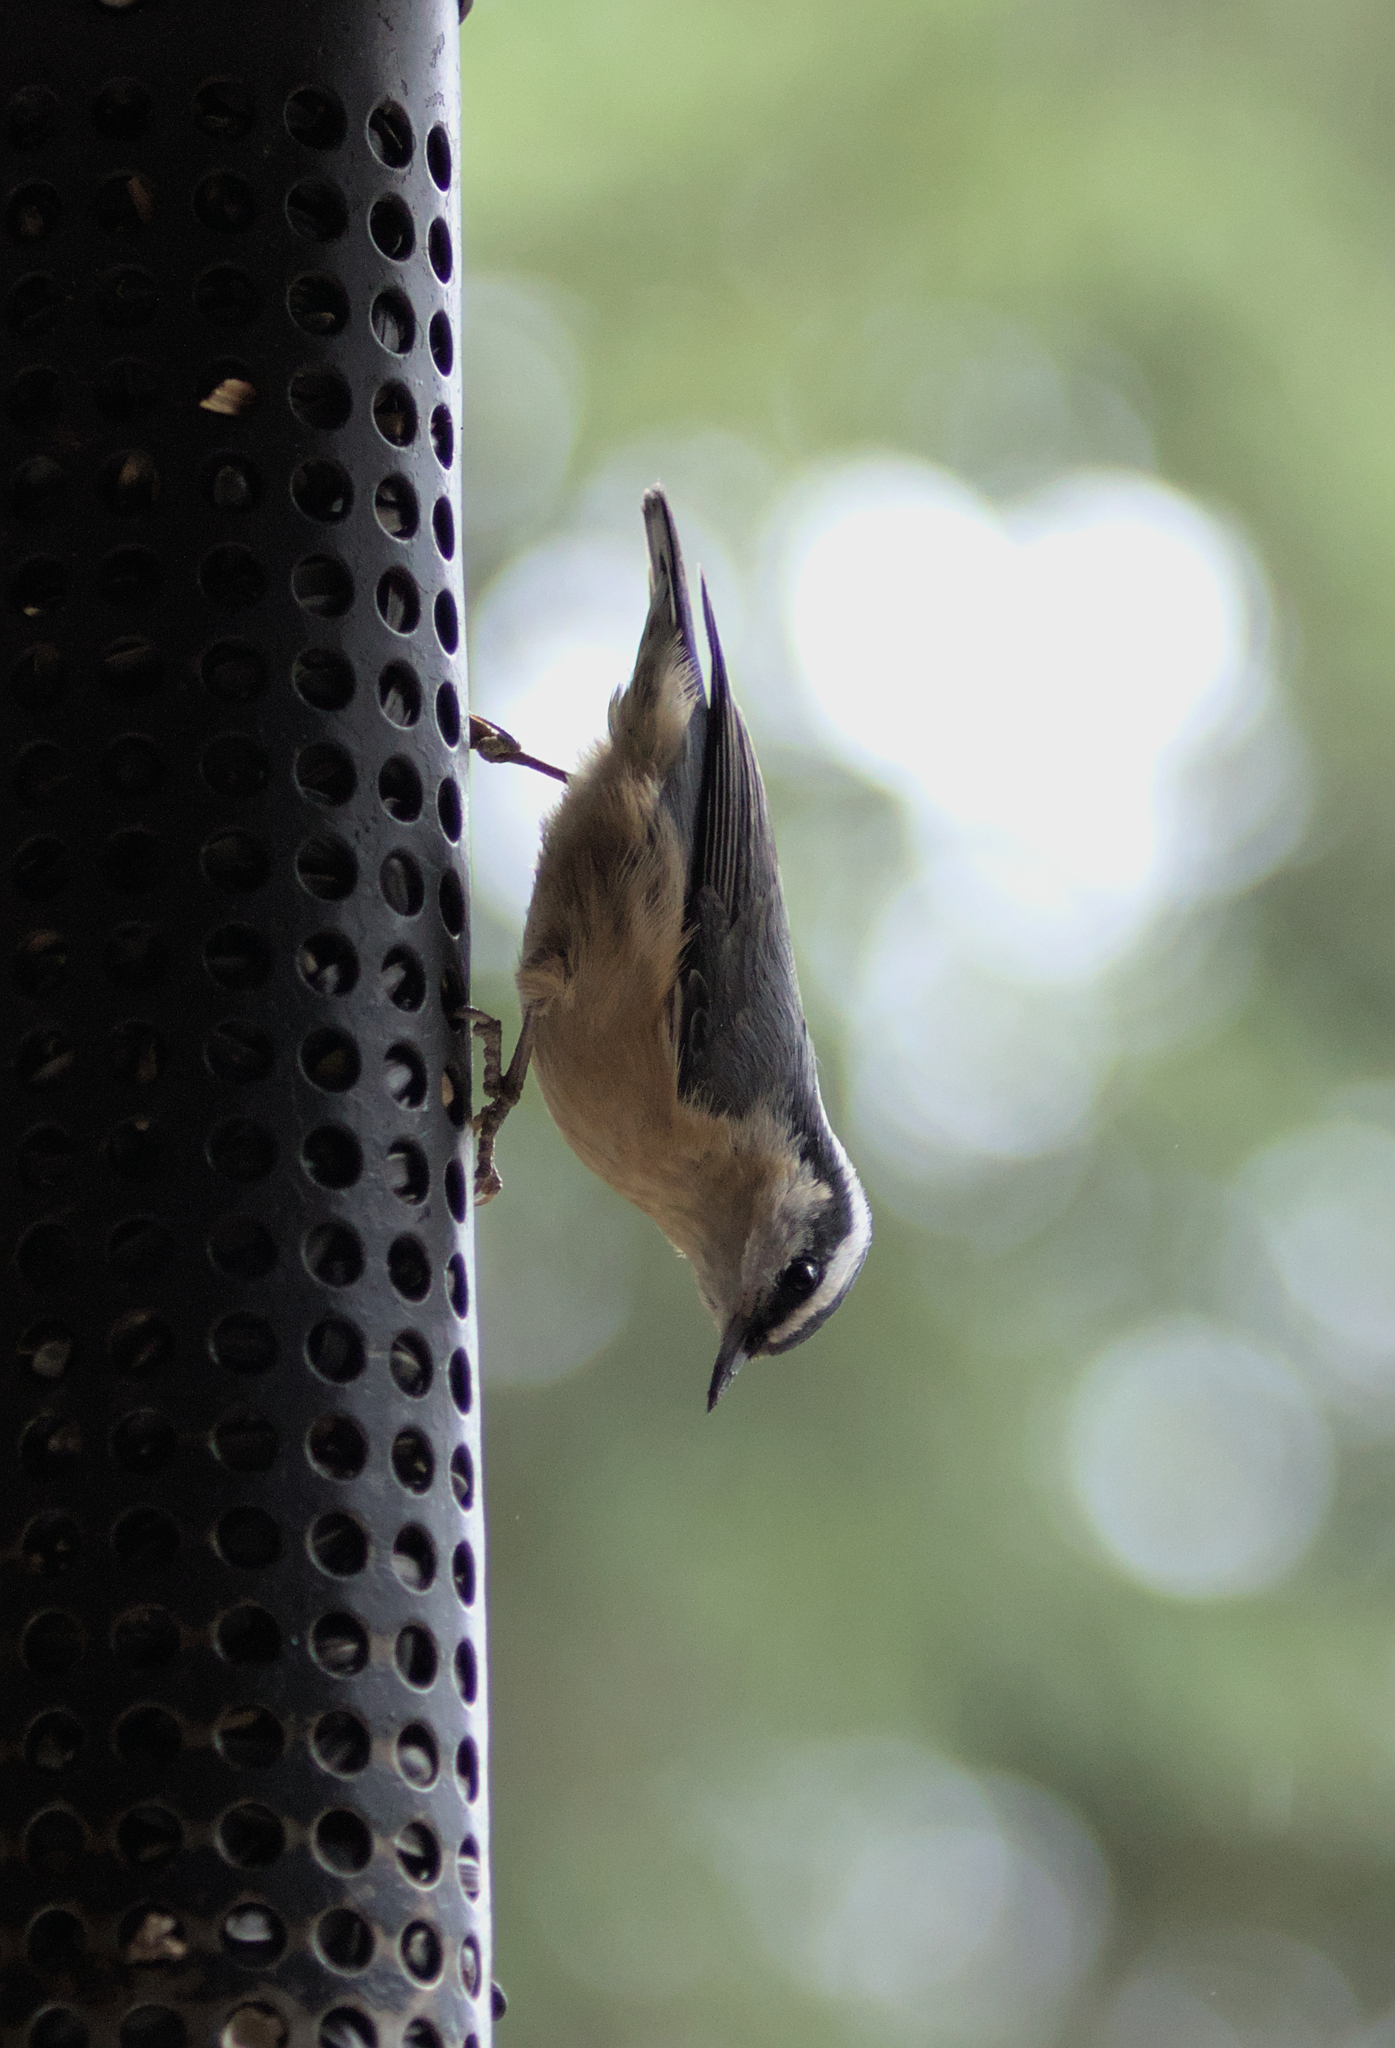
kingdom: Animalia
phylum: Chordata
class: Aves
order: Passeriformes
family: Sittidae
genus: Sitta
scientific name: Sitta canadensis
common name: Red-breasted nuthatch
